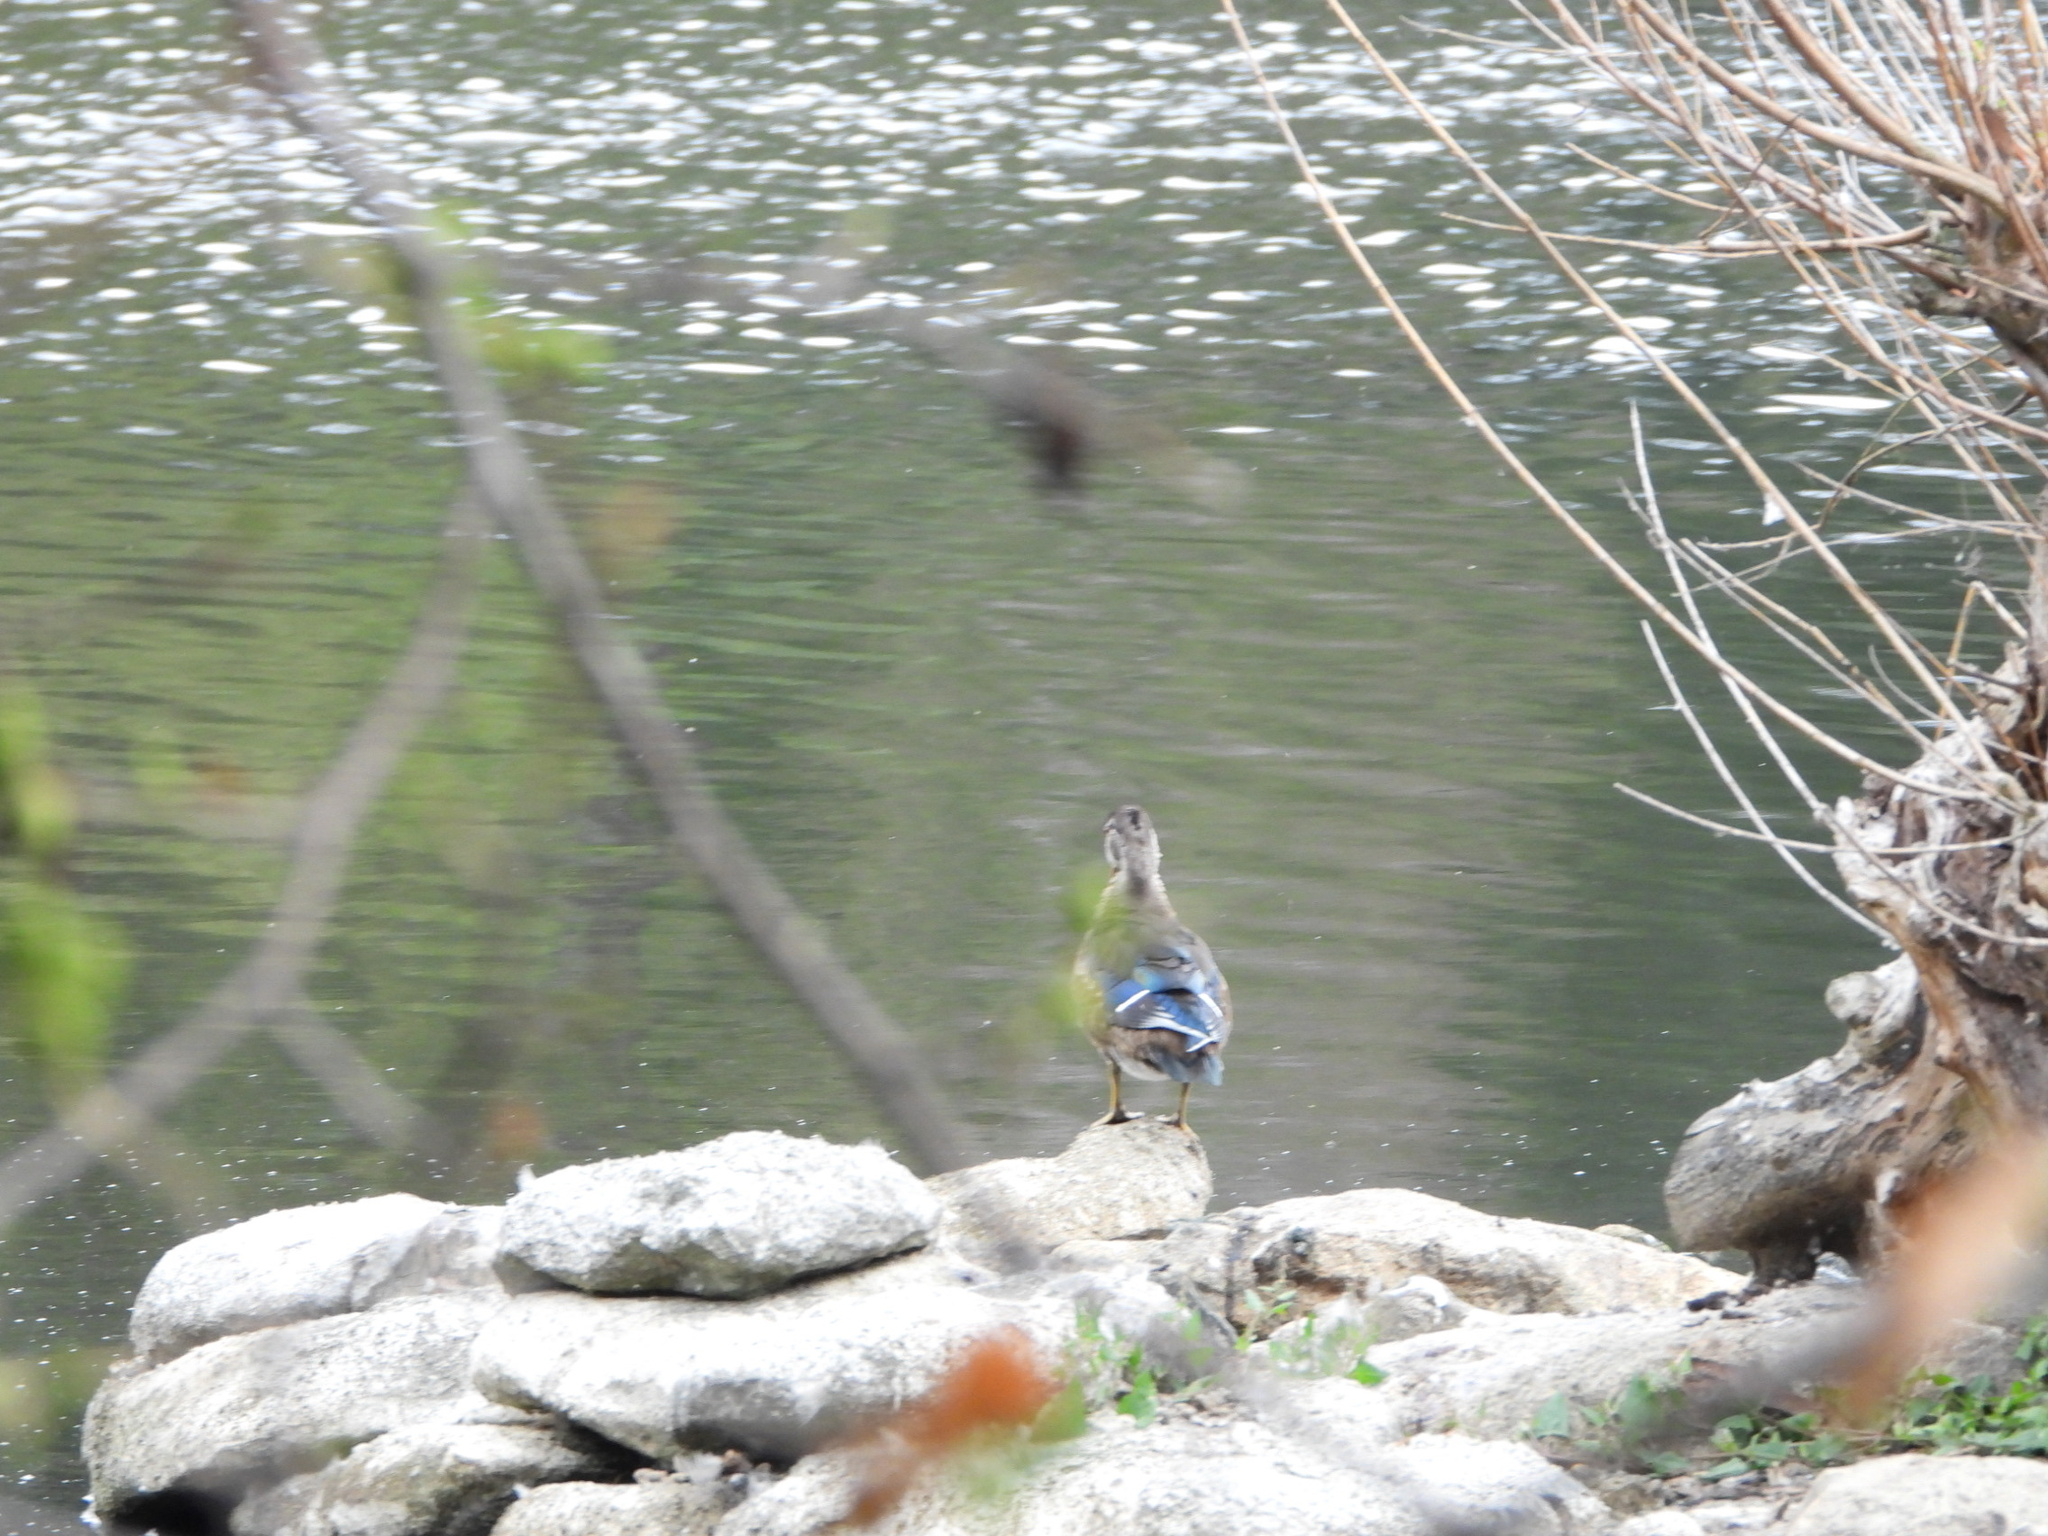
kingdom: Animalia
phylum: Chordata
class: Aves
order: Anseriformes
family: Anatidae
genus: Aix
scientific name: Aix sponsa
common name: Wood duck
